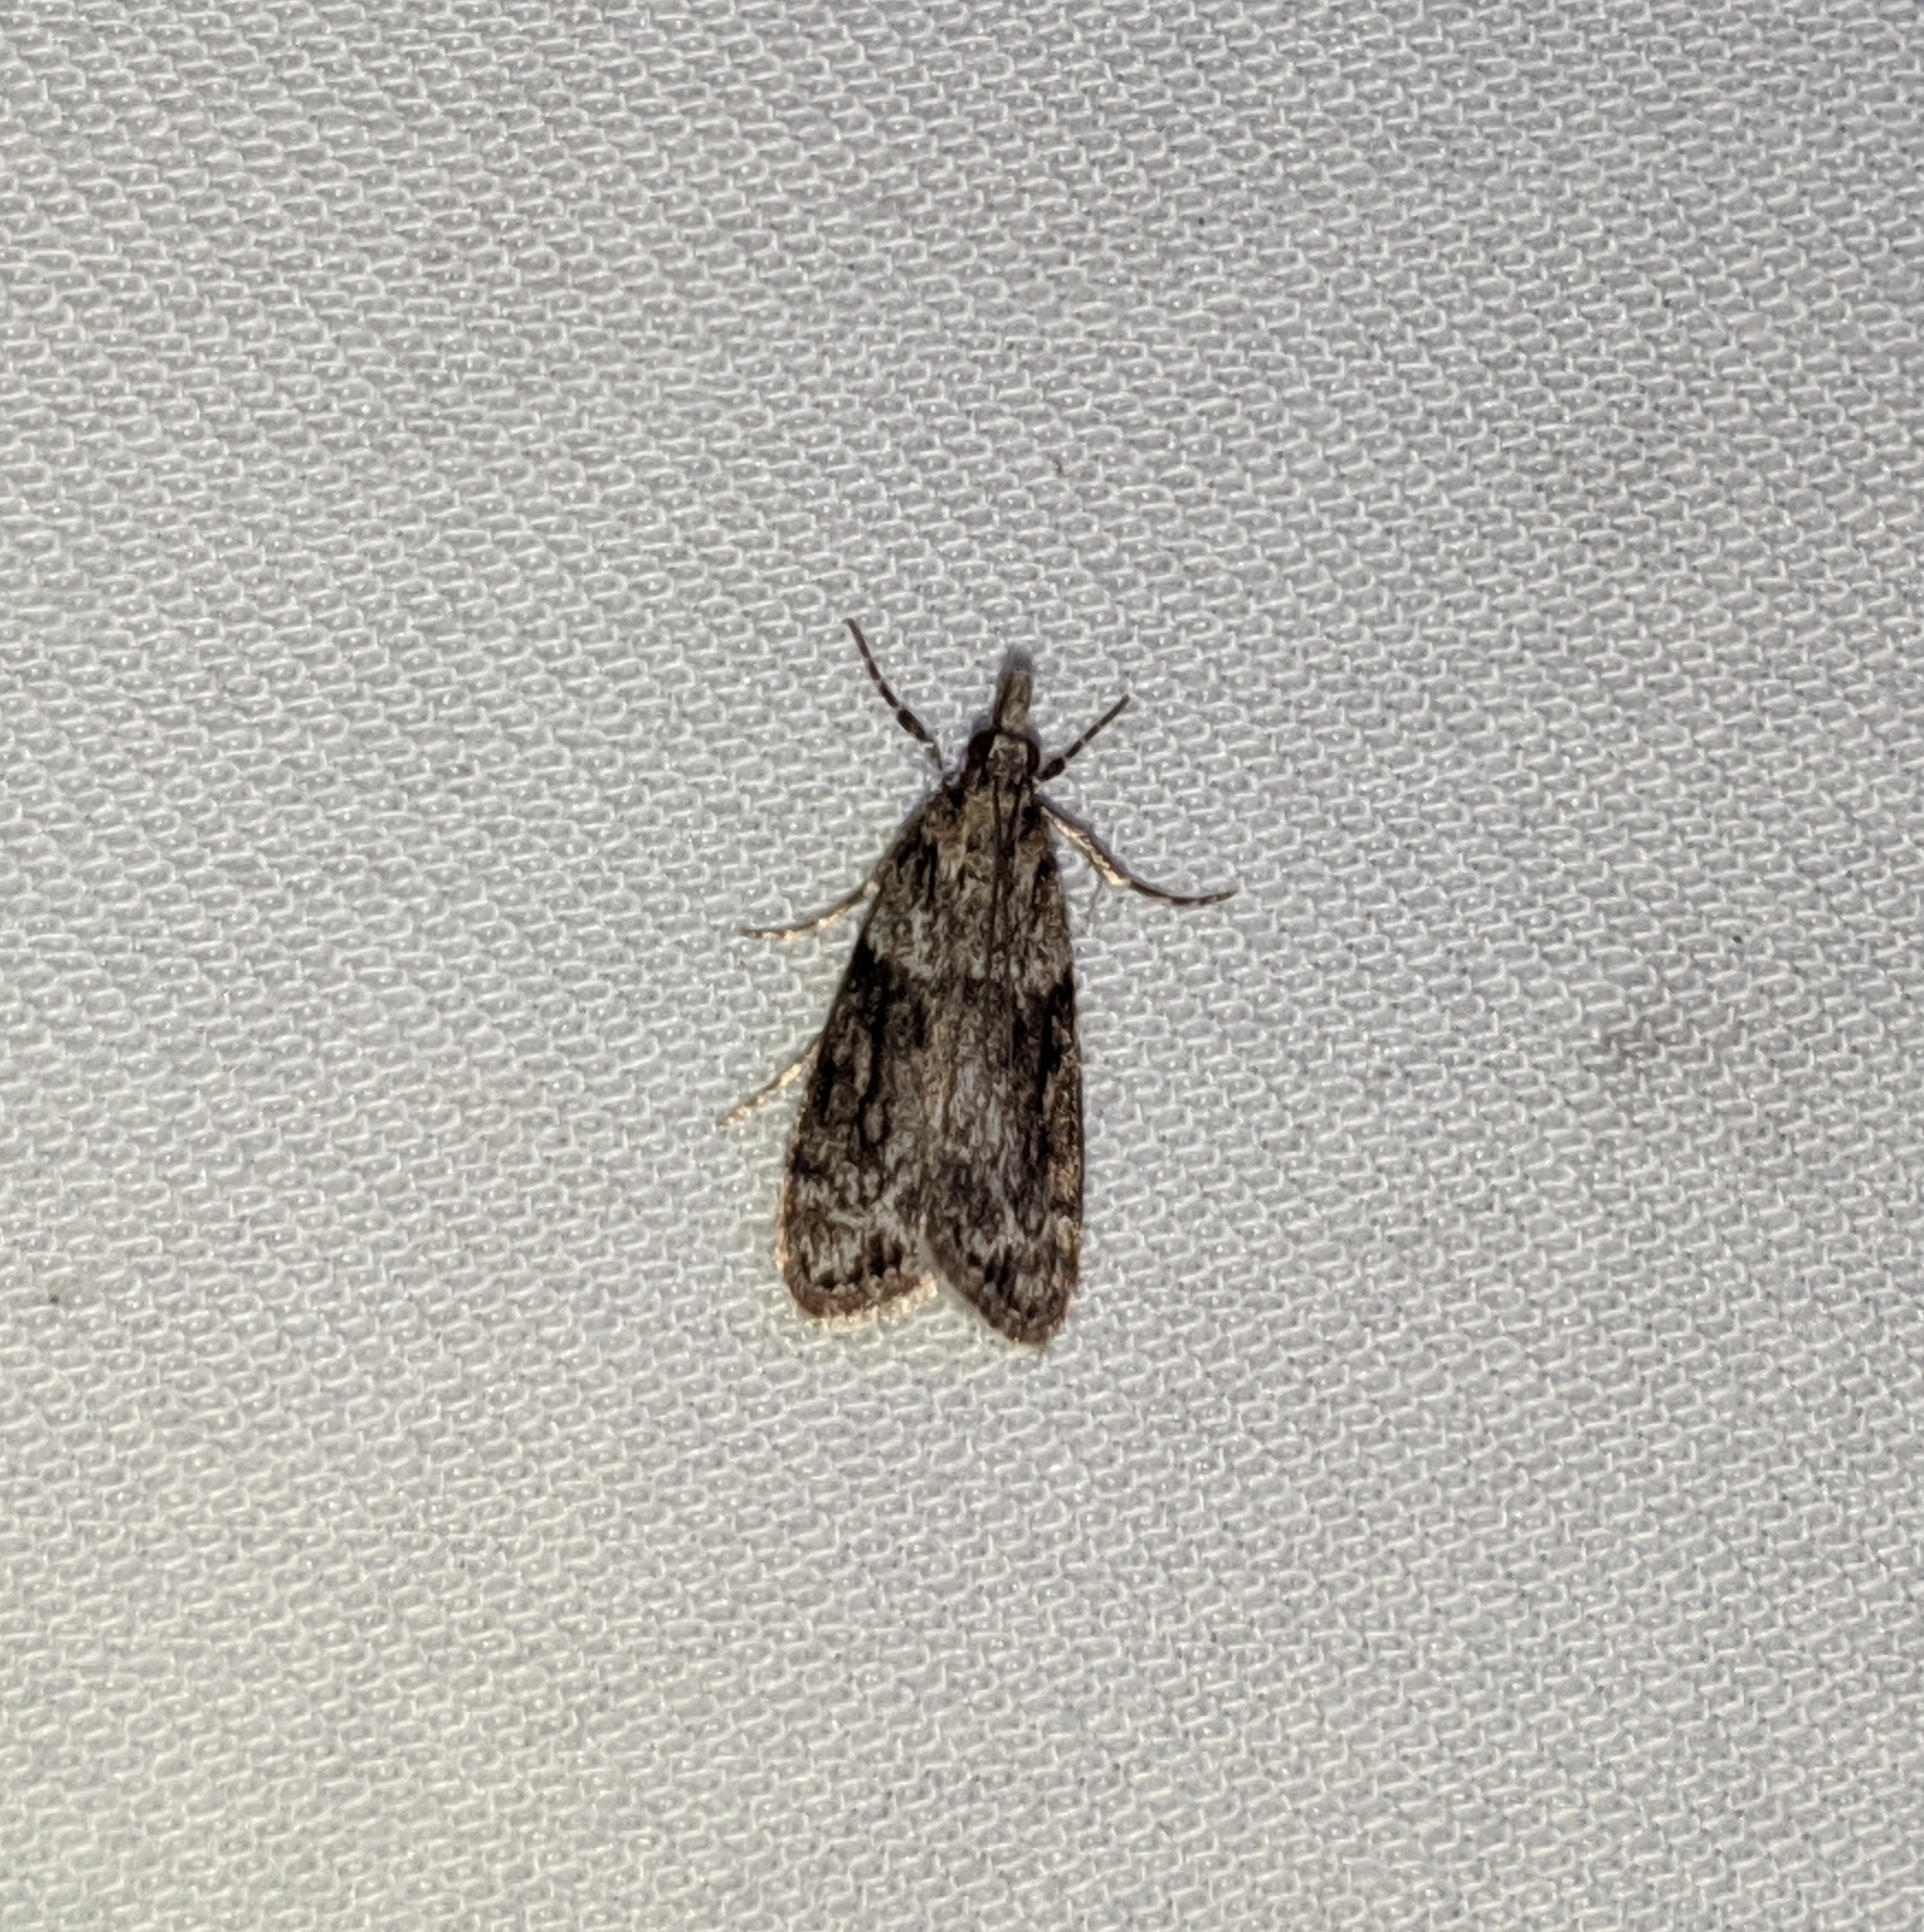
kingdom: Animalia
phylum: Arthropoda
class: Insecta
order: Lepidoptera
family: Crambidae
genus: Eudonia
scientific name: Eudonia spenceri
